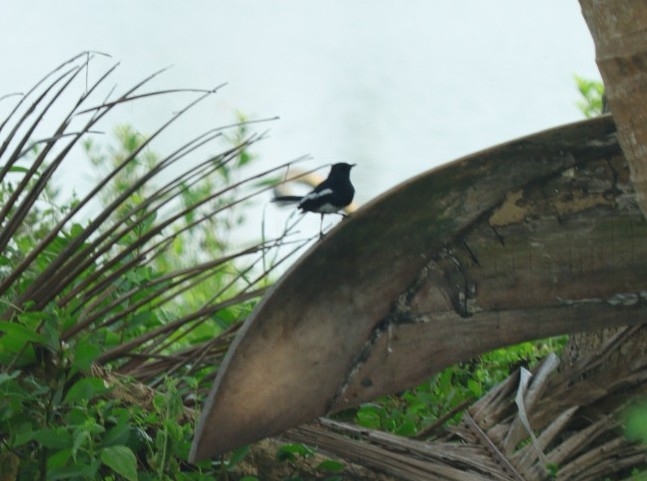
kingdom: Animalia
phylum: Chordata
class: Aves
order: Passeriformes
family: Muscicapidae
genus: Copsychus
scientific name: Copsychus saularis
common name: Oriental magpie-robin
